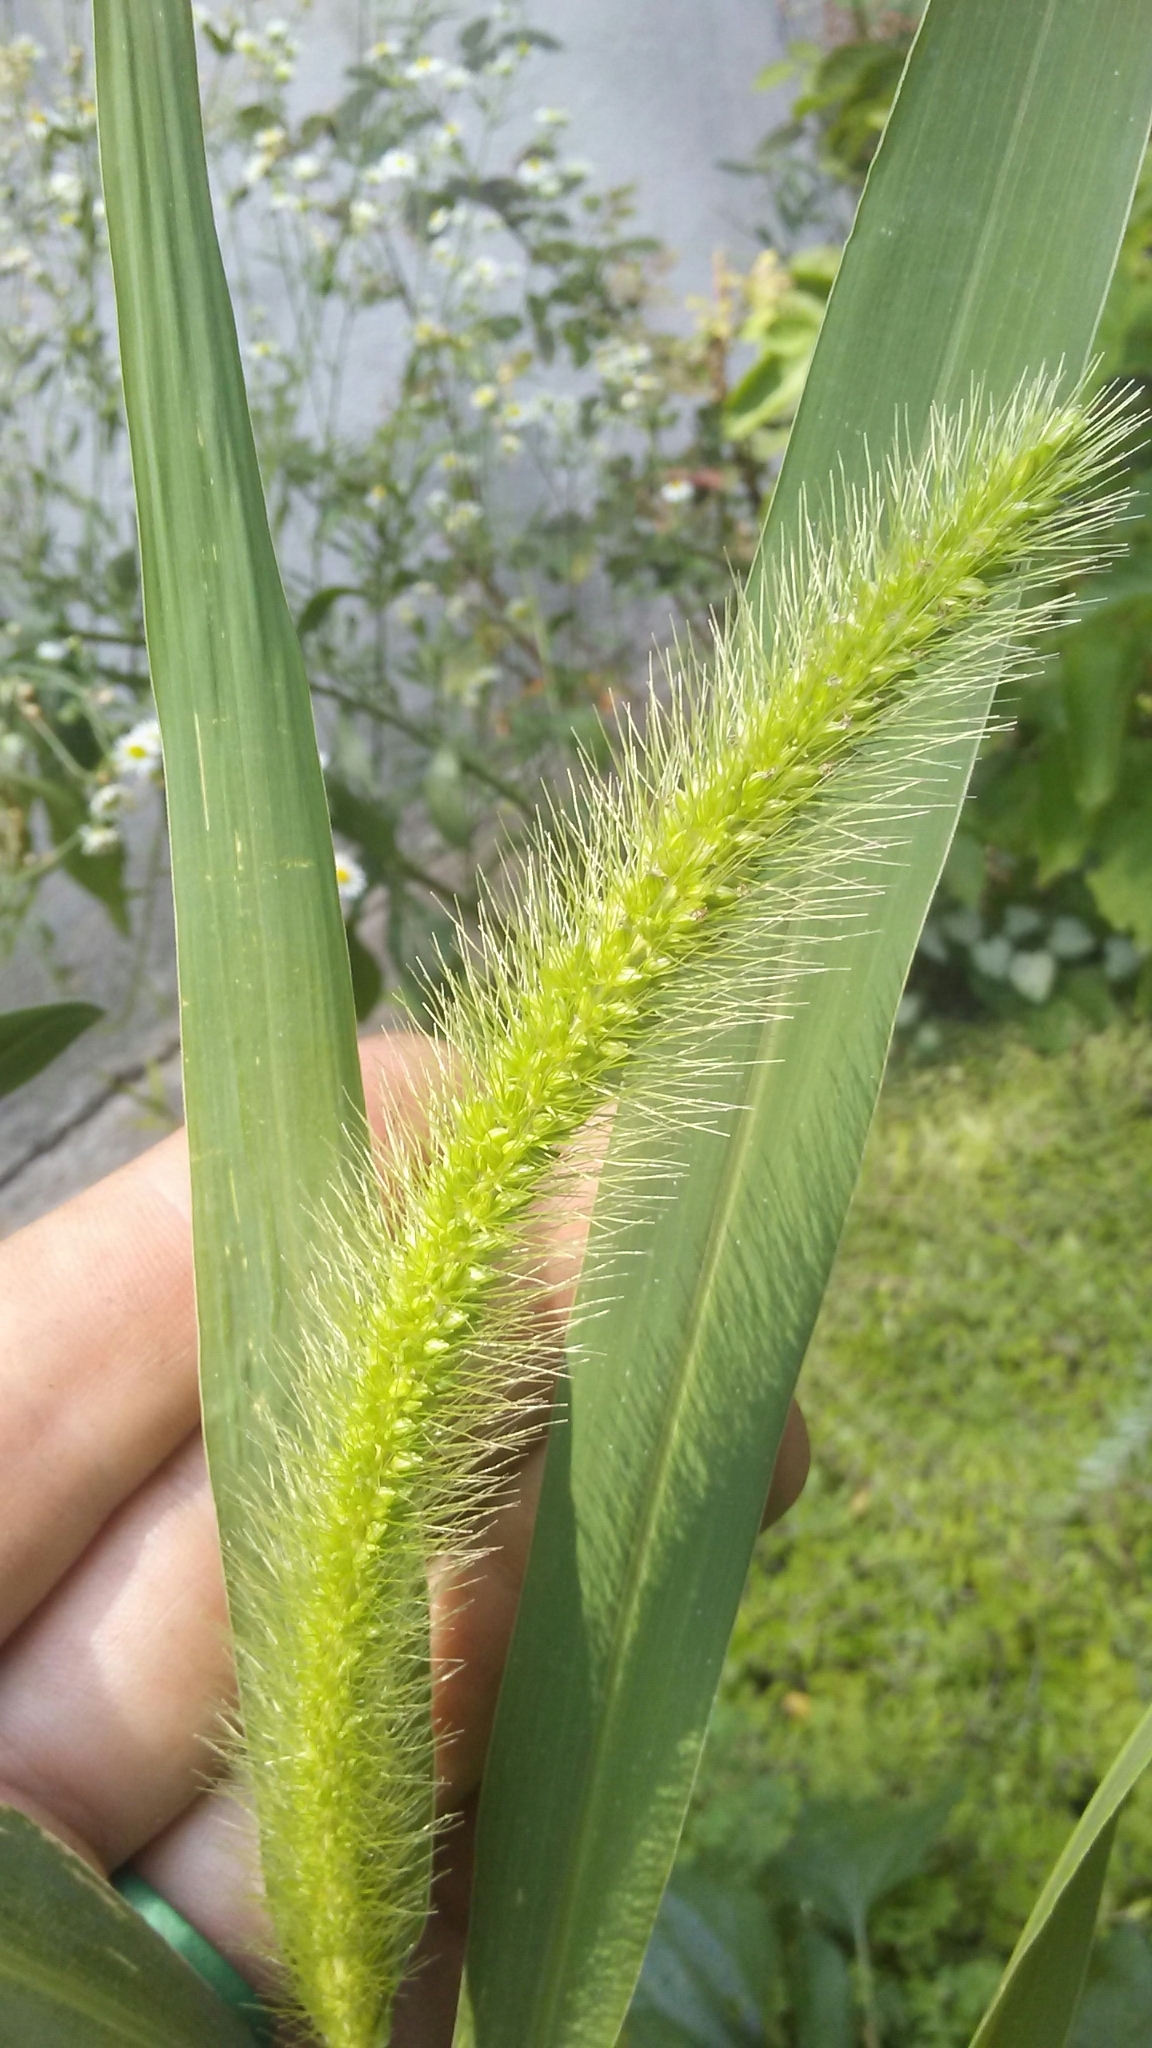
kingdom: Plantae
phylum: Tracheophyta
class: Liliopsida
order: Poales
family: Poaceae
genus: Setaria
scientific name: Setaria faberi
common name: Nodding bristle-grass
